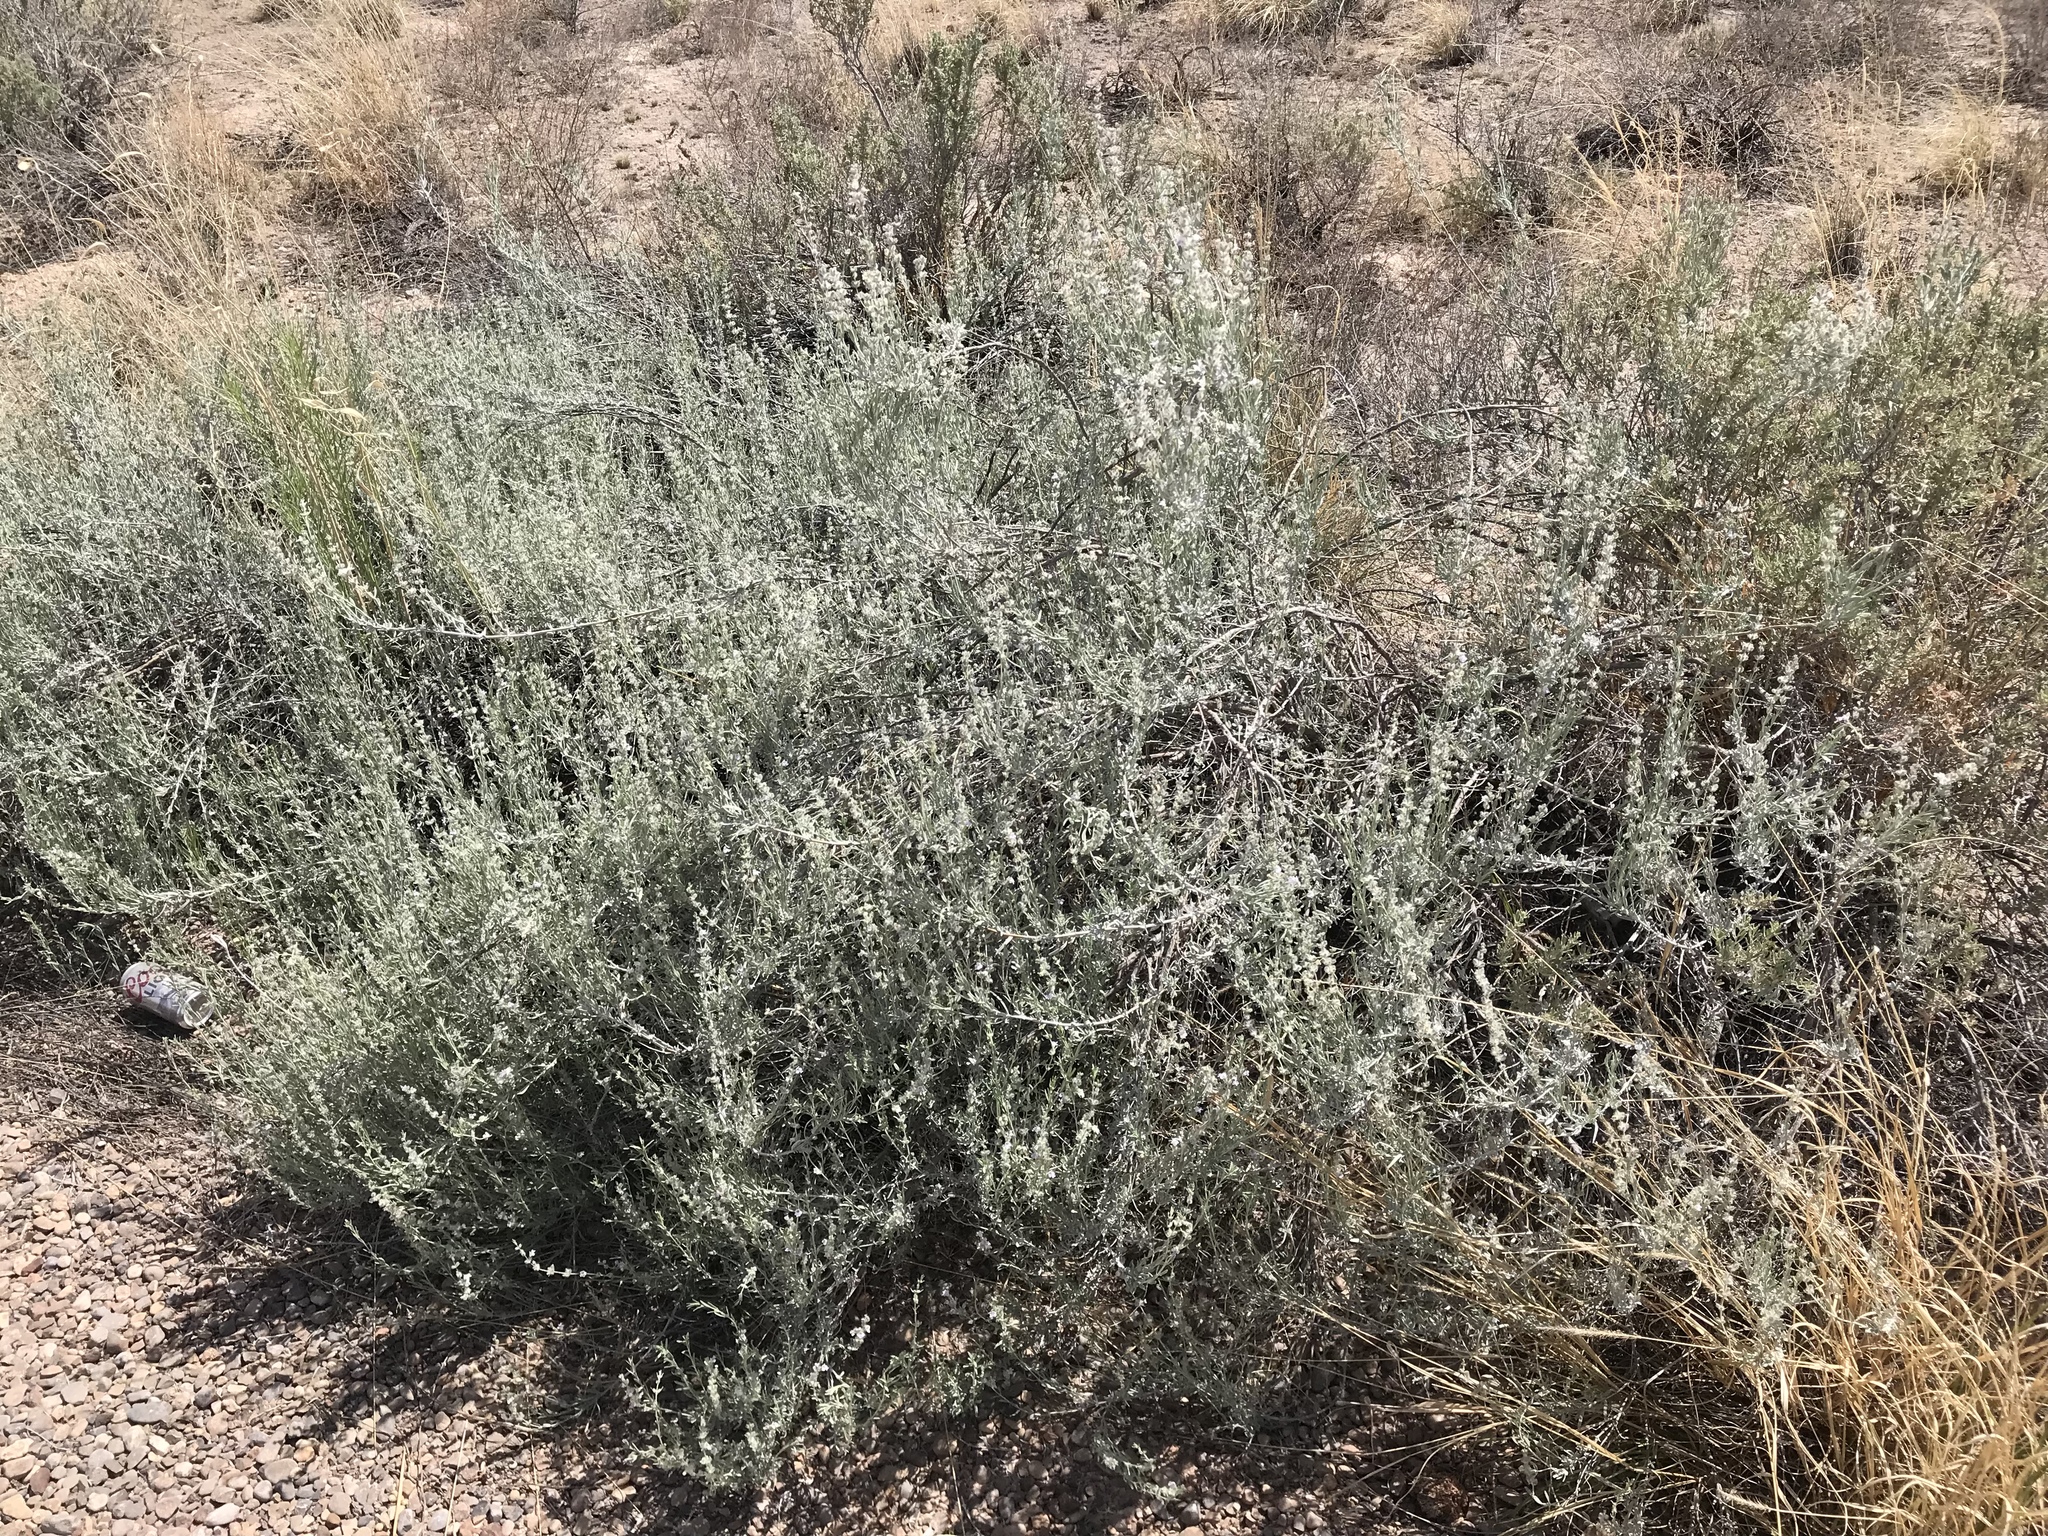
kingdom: Plantae
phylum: Tracheophyta
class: Magnoliopsida
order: Lamiales
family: Lamiaceae
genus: Poliomintha
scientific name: Poliomintha incana
